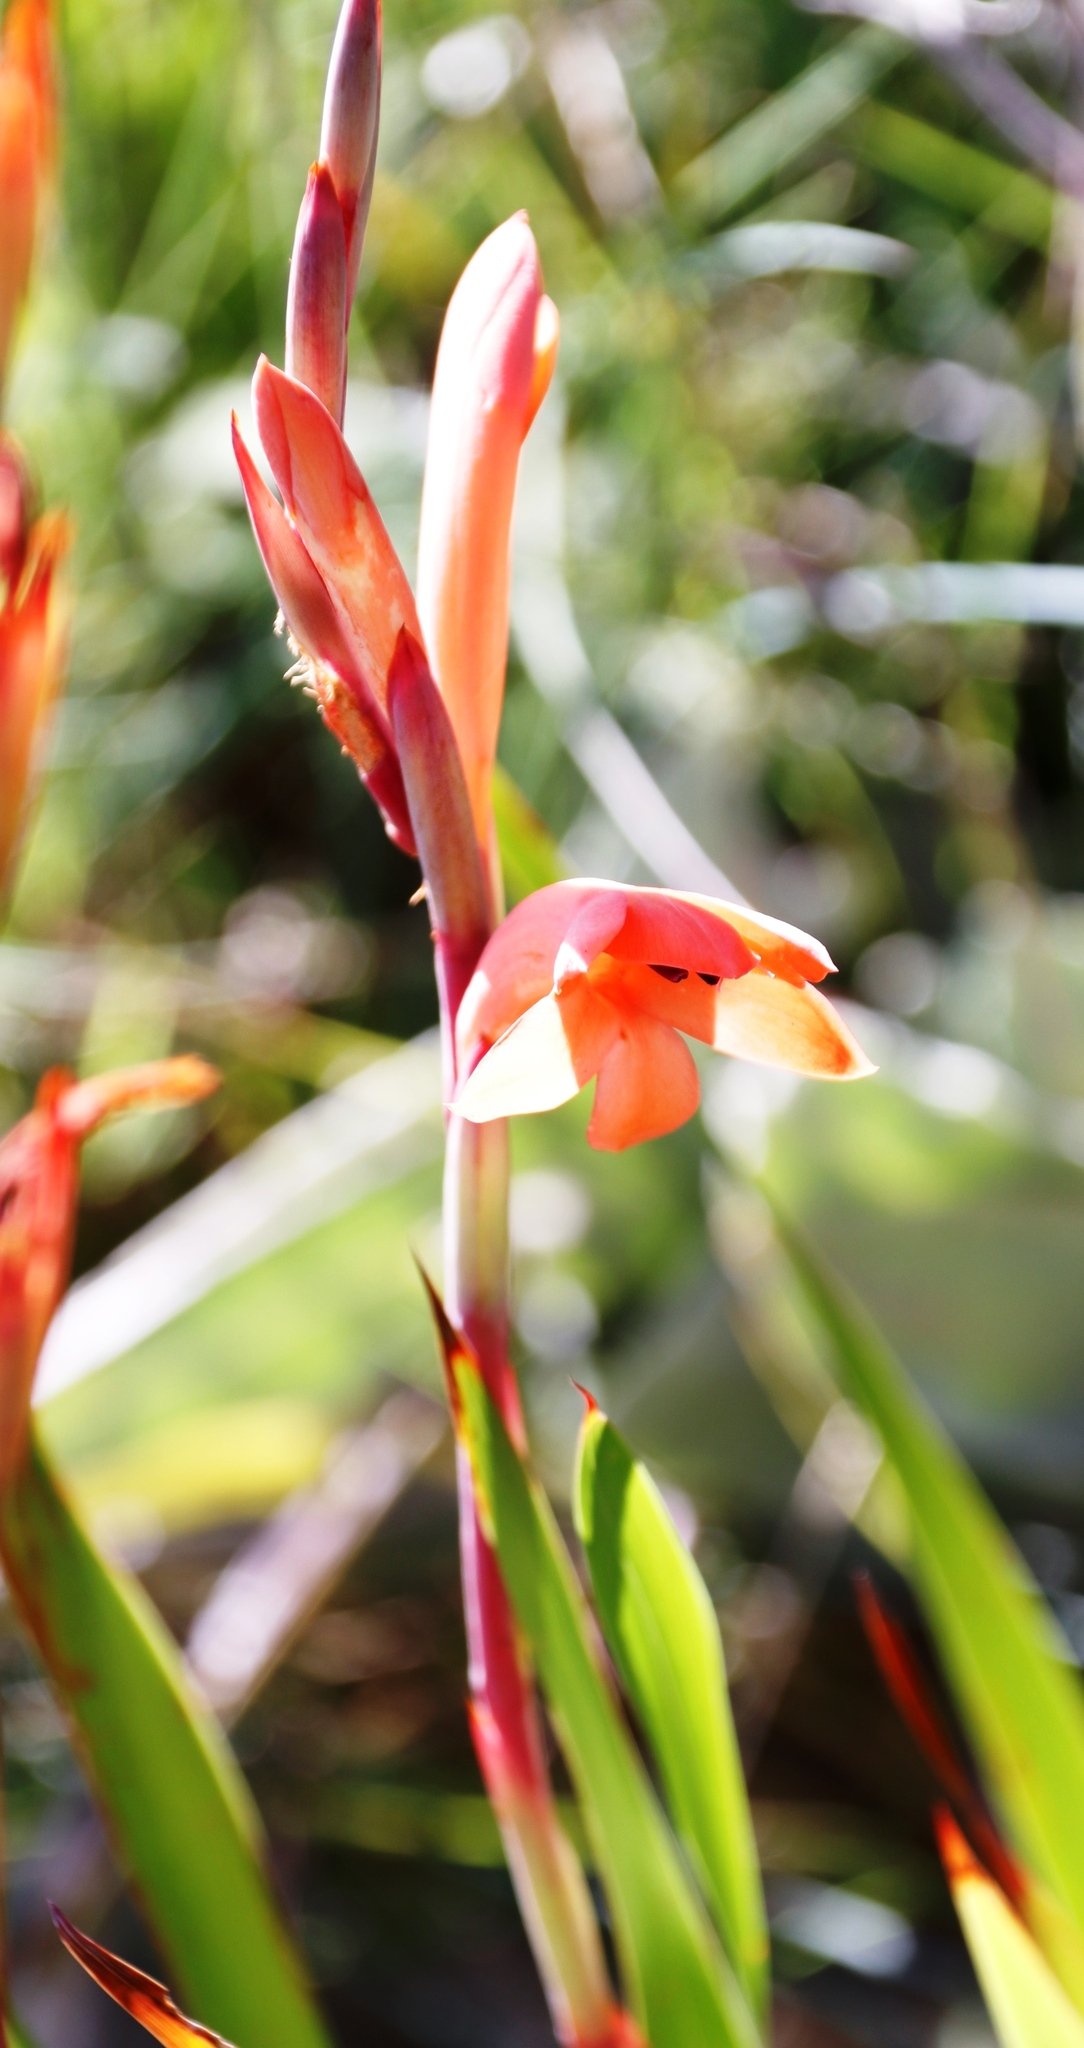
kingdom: Plantae
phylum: Tracheophyta
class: Liliopsida
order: Asparagales
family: Iridaceae
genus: Watsonia
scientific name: Watsonia pillansii
